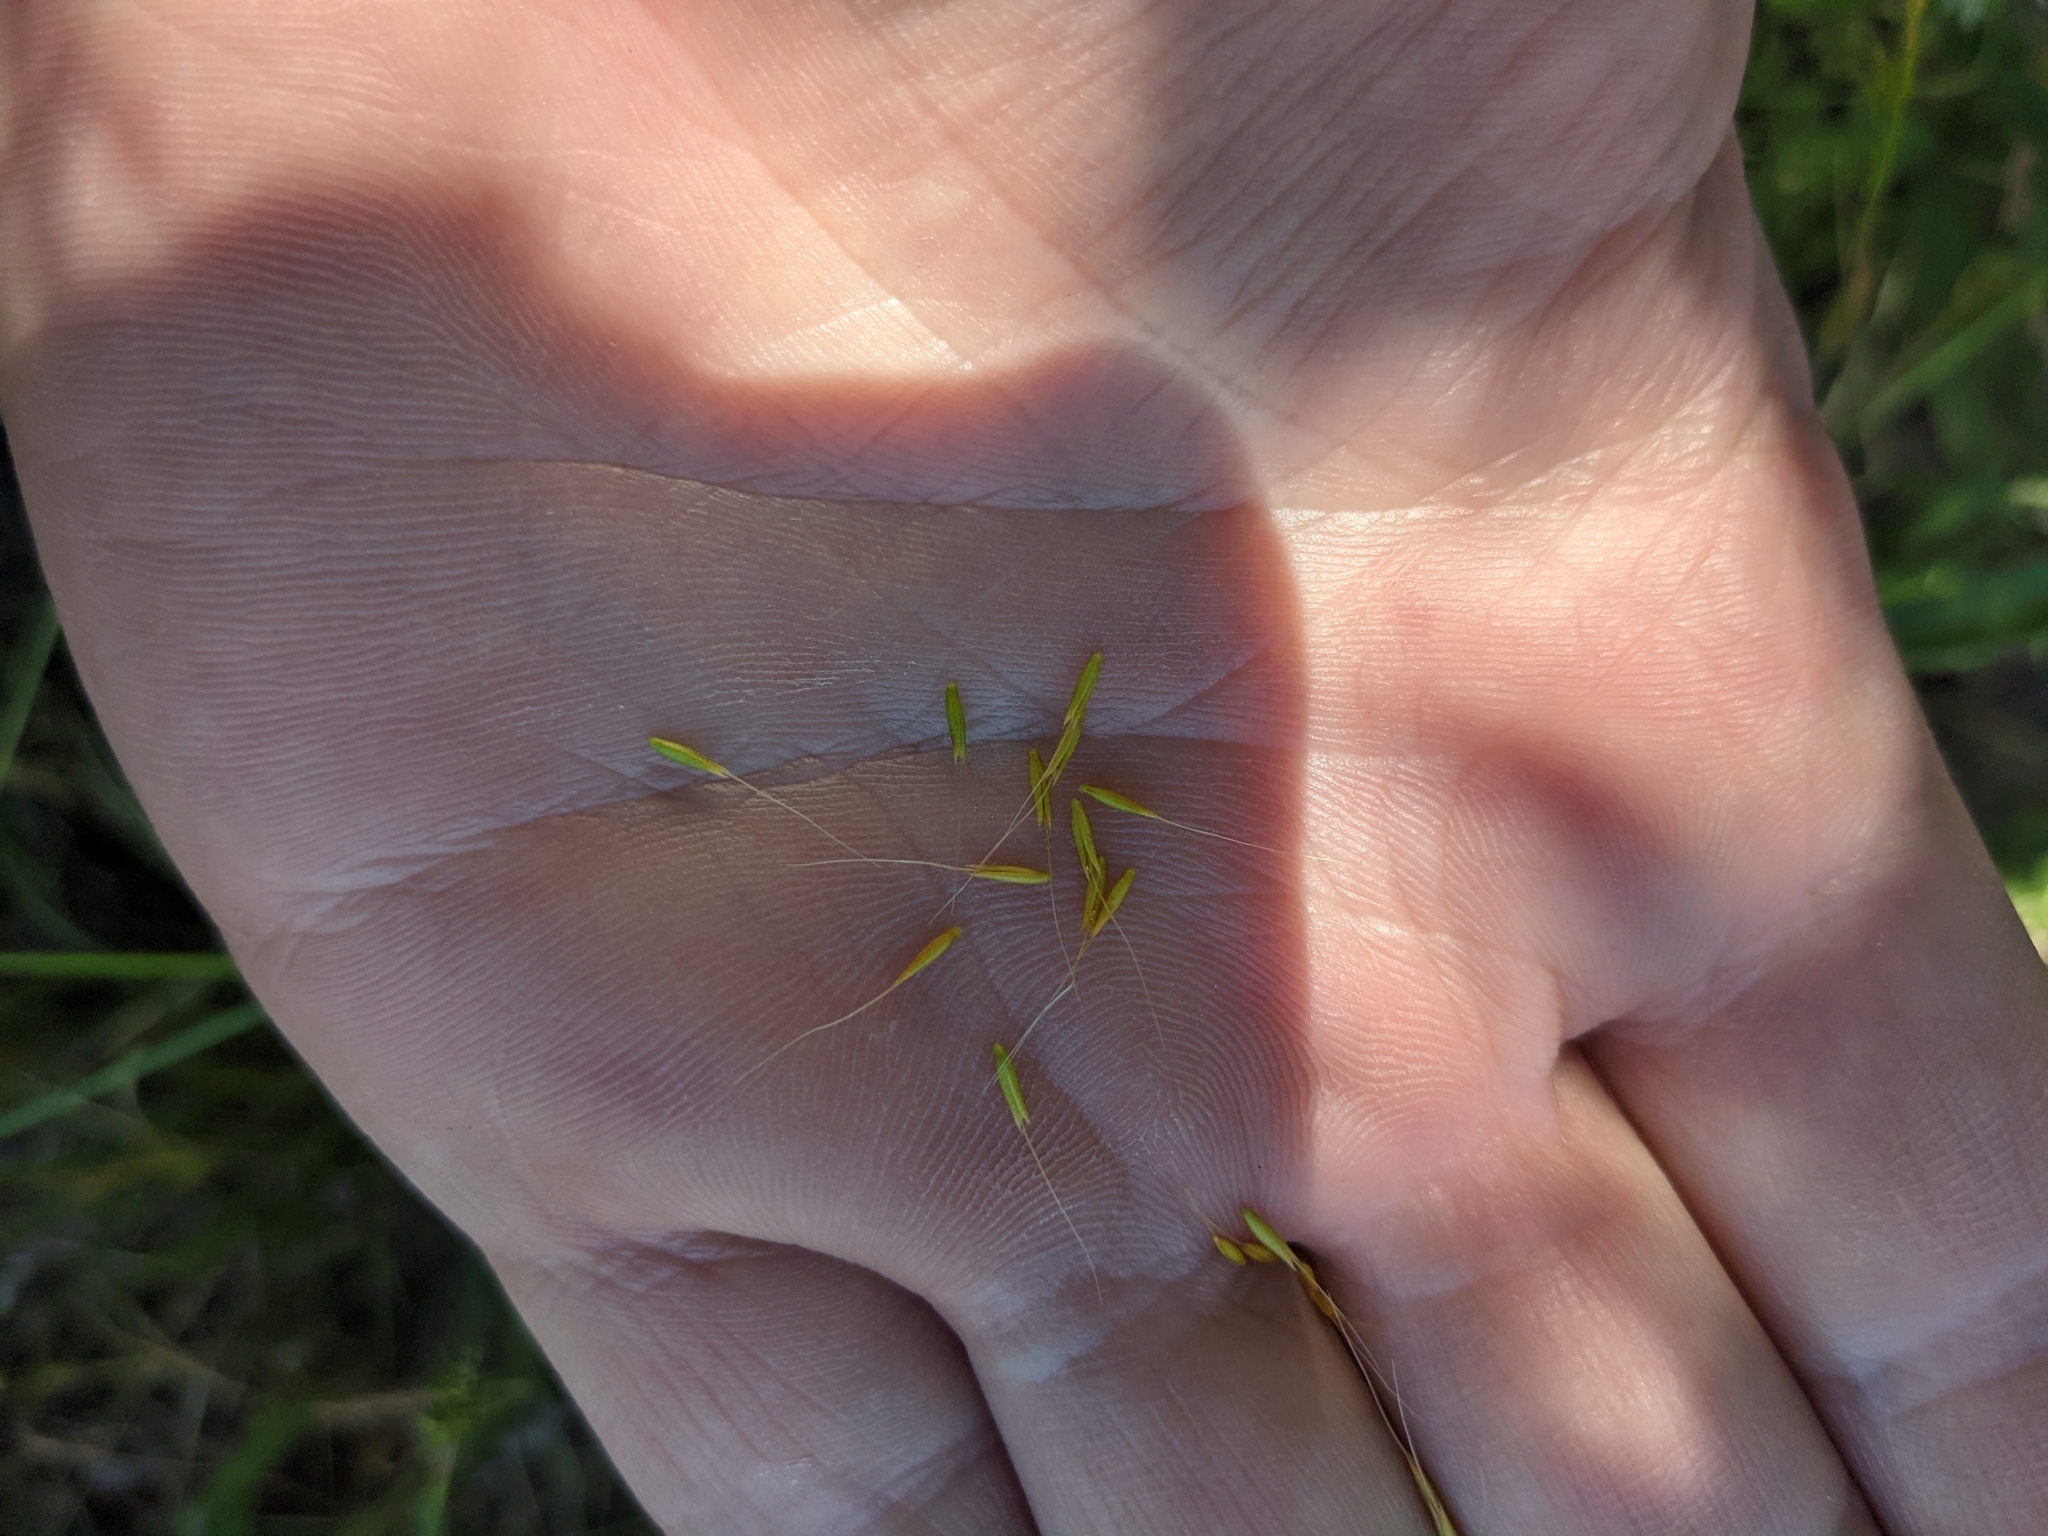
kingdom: Plantae
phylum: Tracheophyta
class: Liliopsida
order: Poales
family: Poaceae
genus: Limnodea
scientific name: Limnodea arkansana
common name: Ozark-grass
